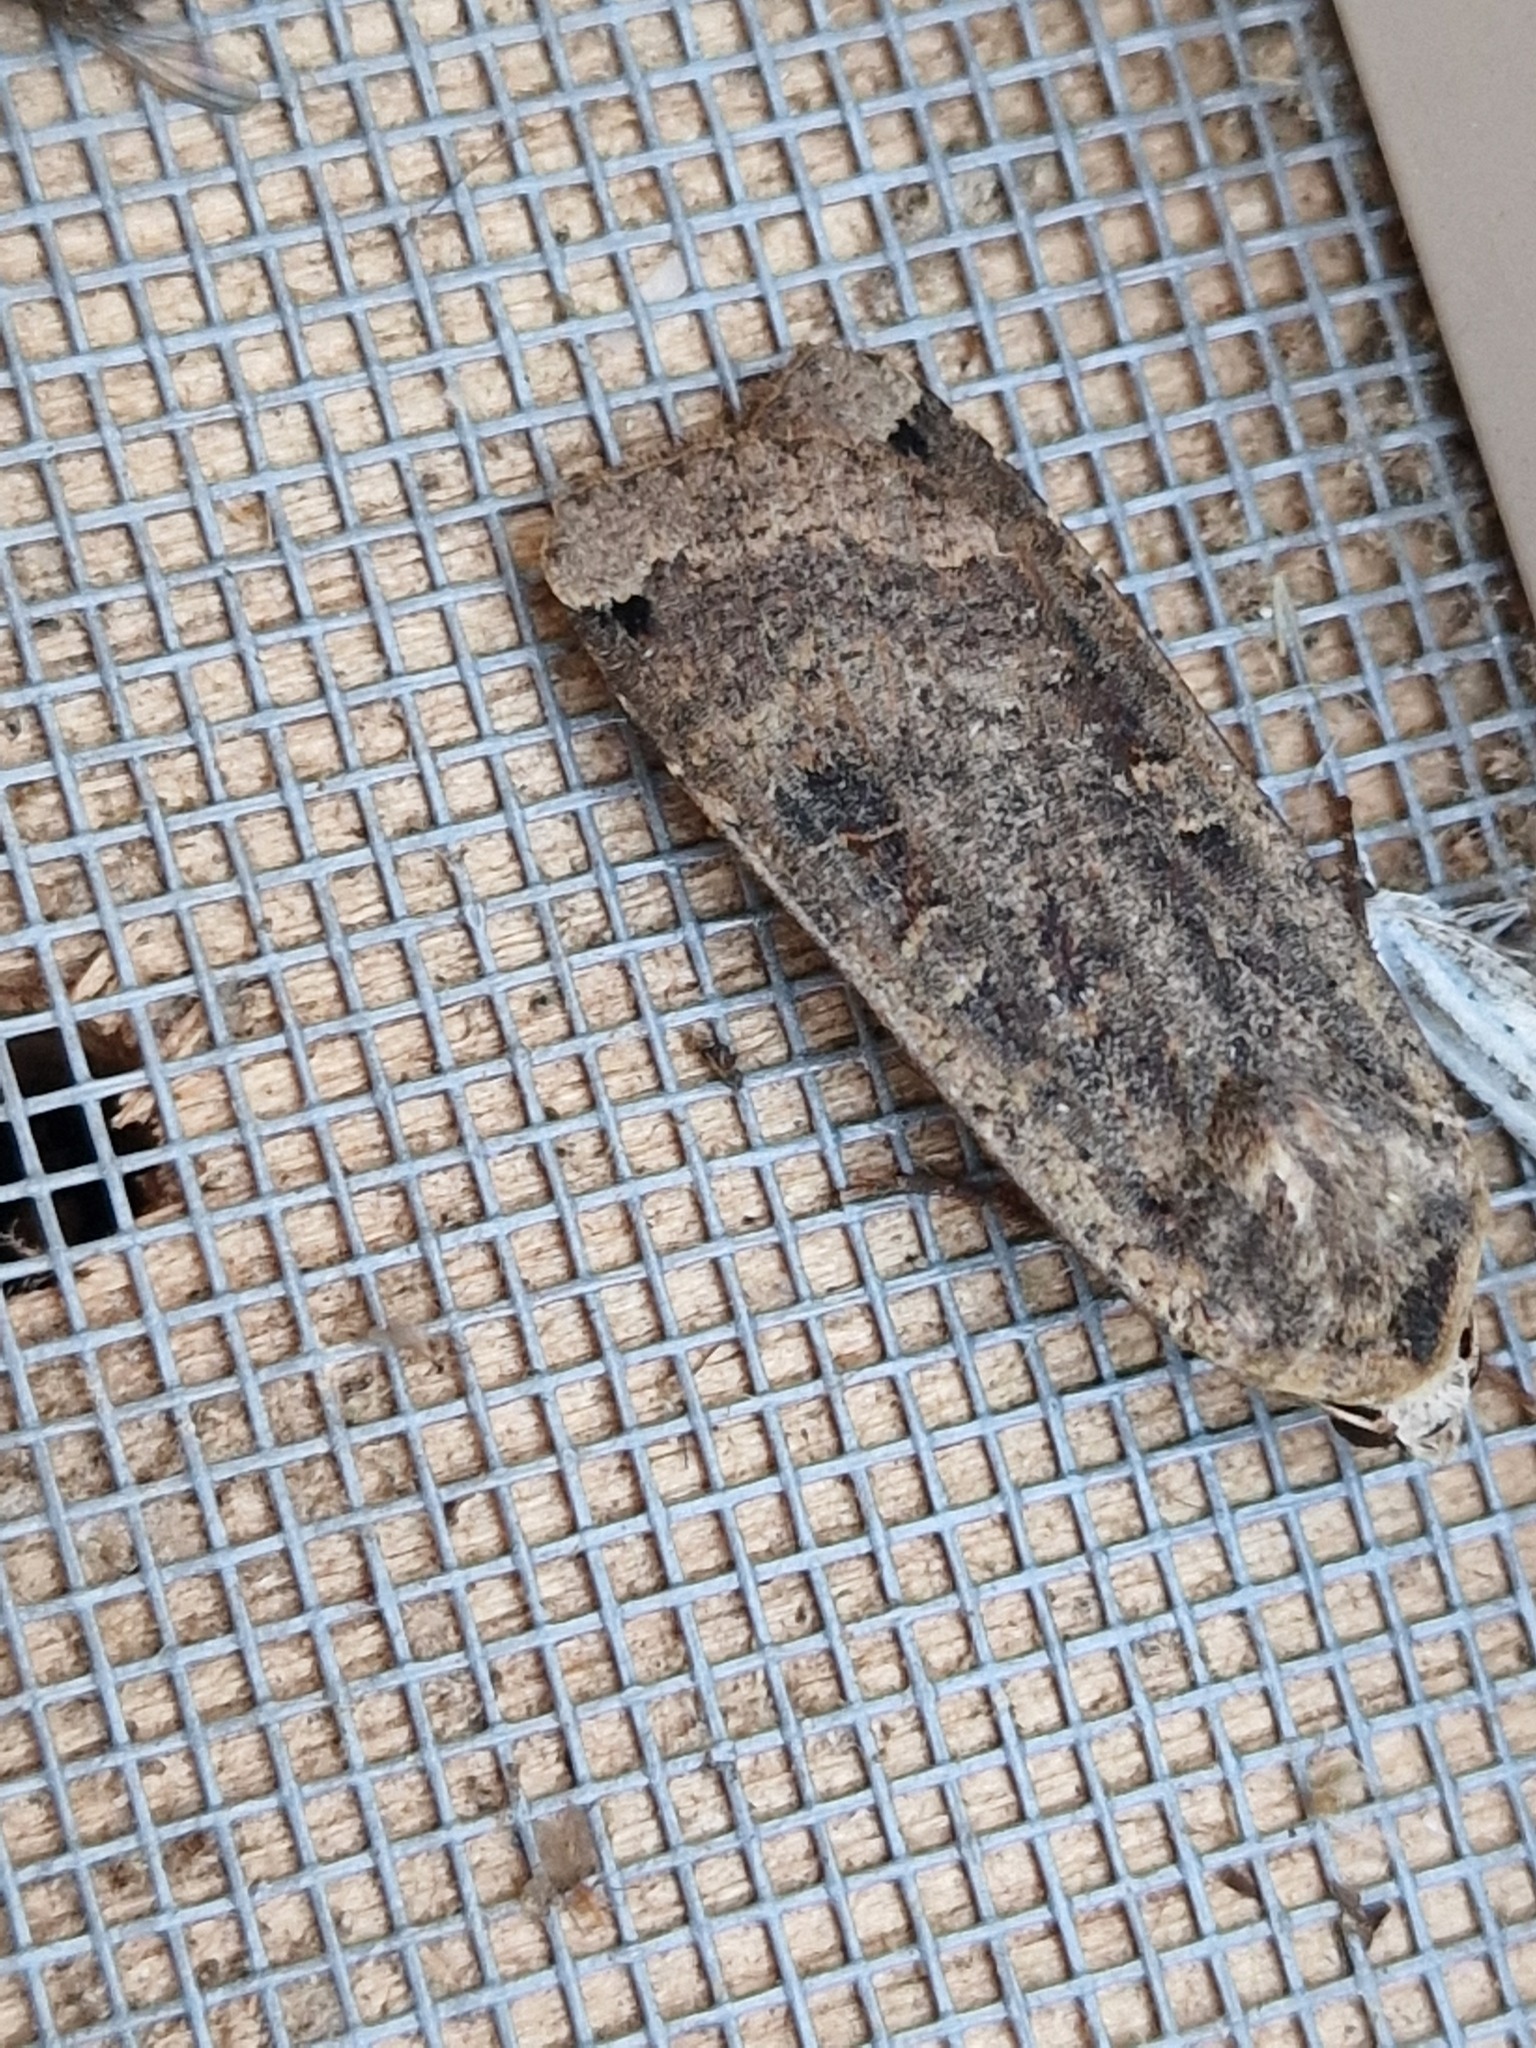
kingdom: Animalia
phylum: Arthropoda
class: Insecta
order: Lepidoptera
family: Noctuidae
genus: Noctua
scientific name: Noctua pronuba
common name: Large yellow underwing
